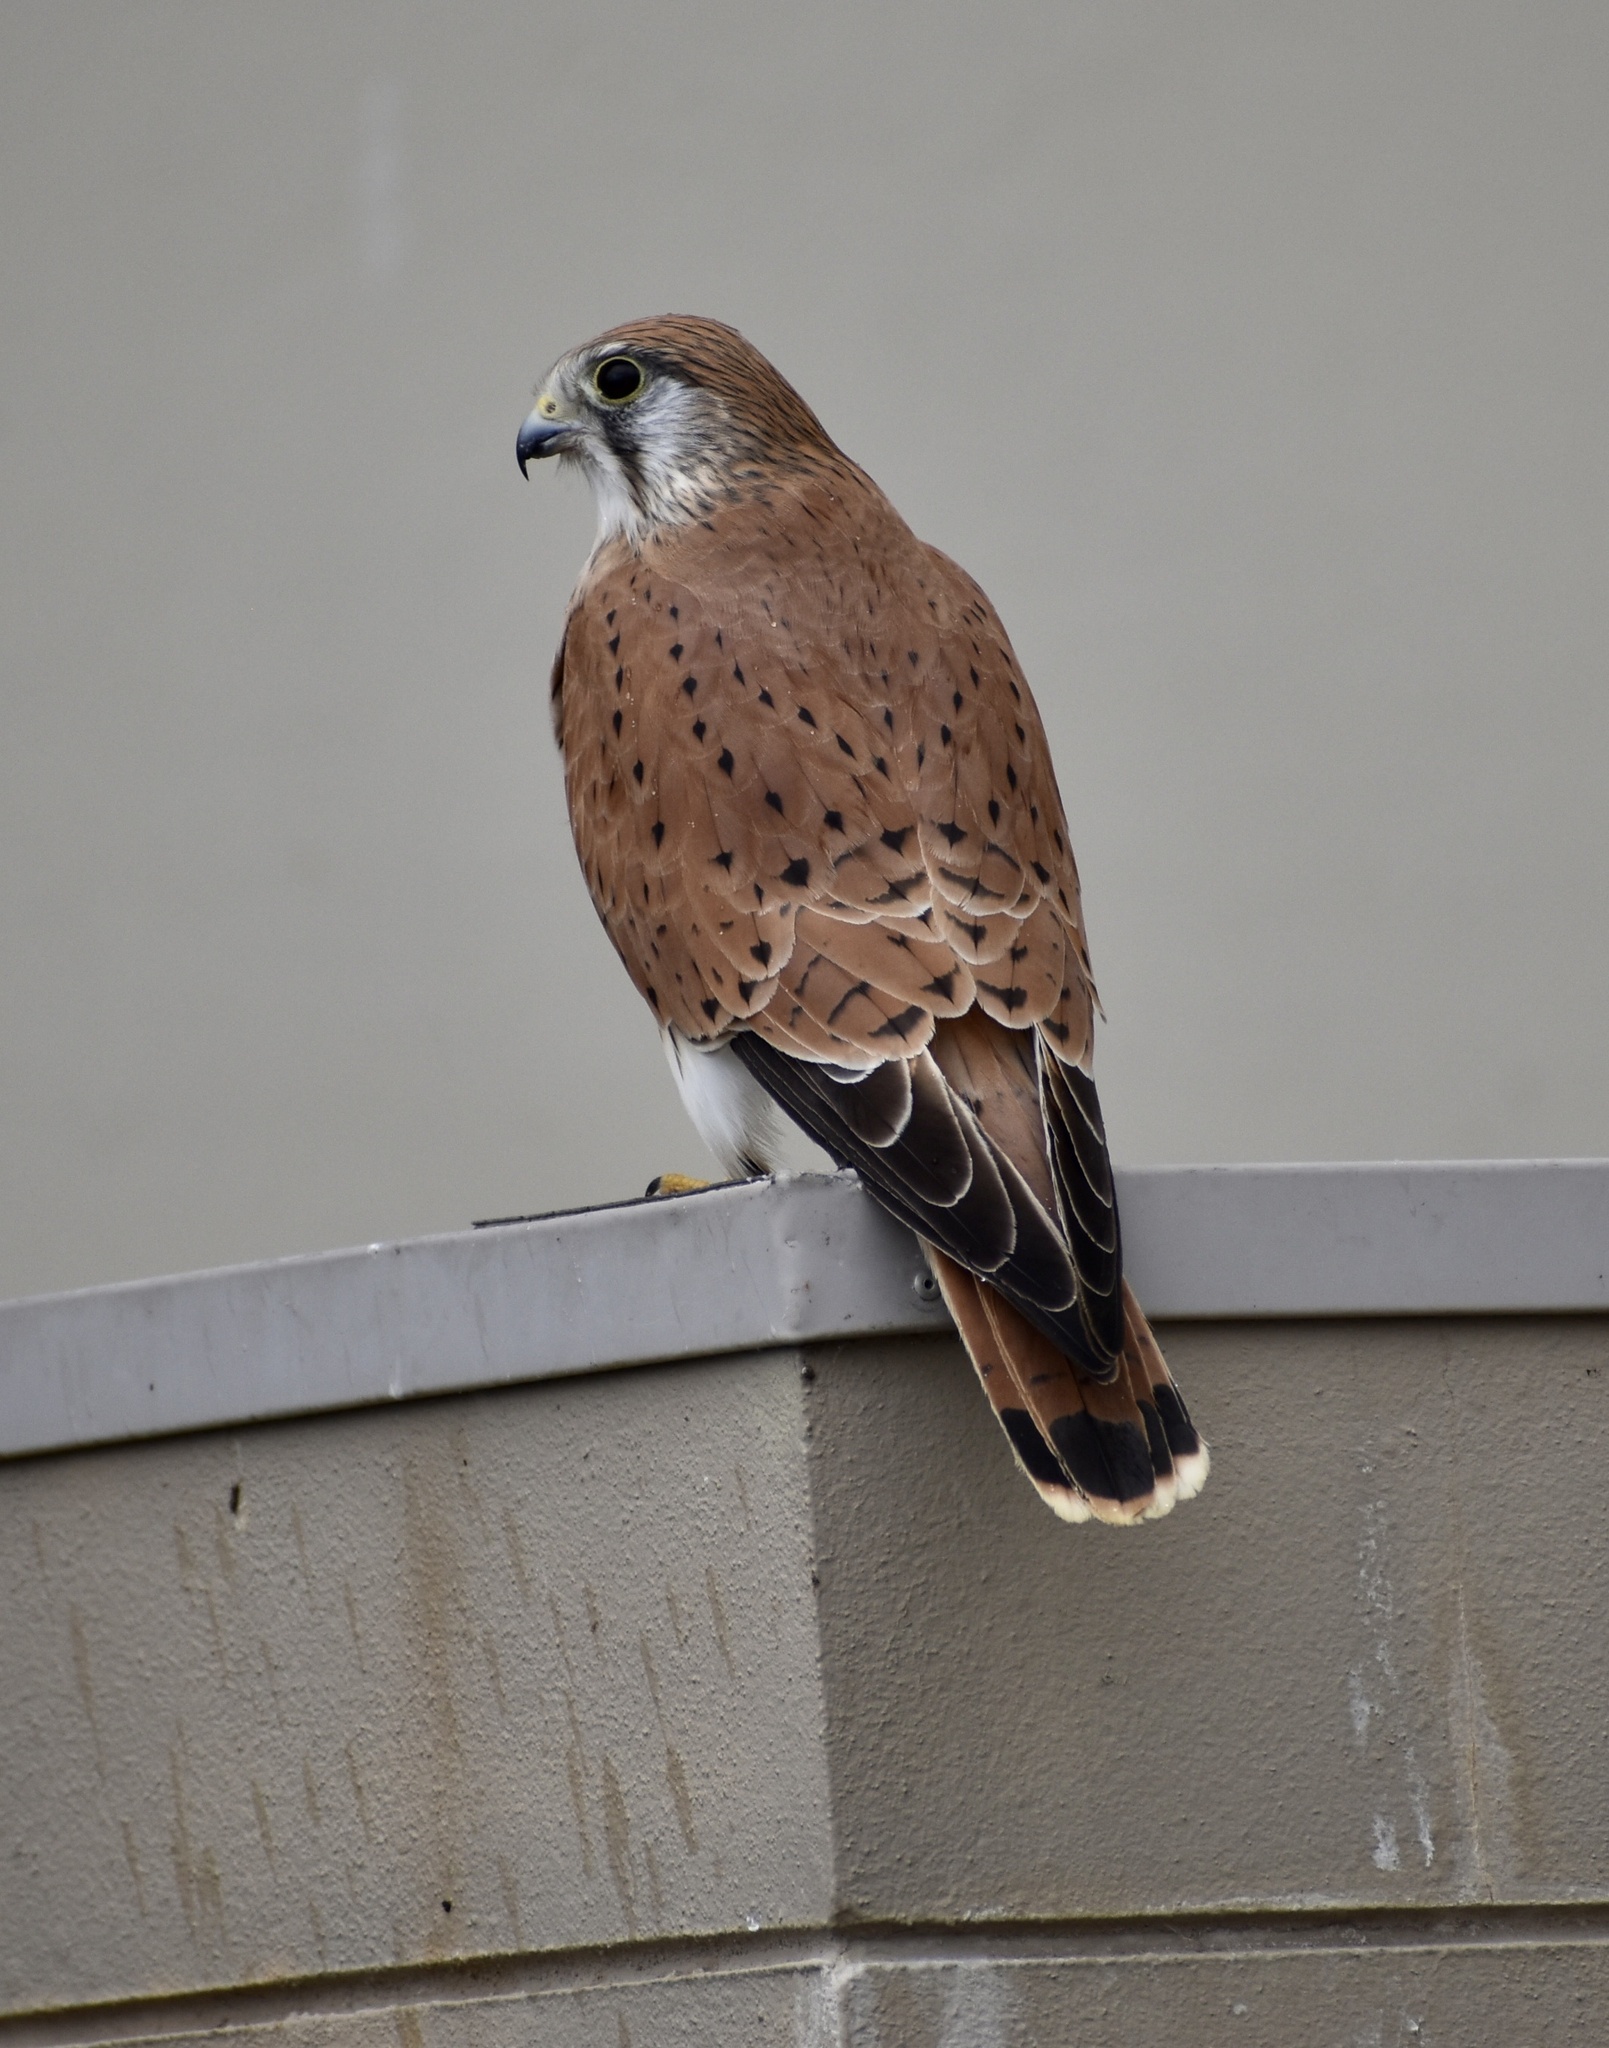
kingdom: Animalia
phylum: Chordata
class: Aves
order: Falconiformes
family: Falconidae
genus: Falco
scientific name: Falco cenchroides
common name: Nankeen kestrel
